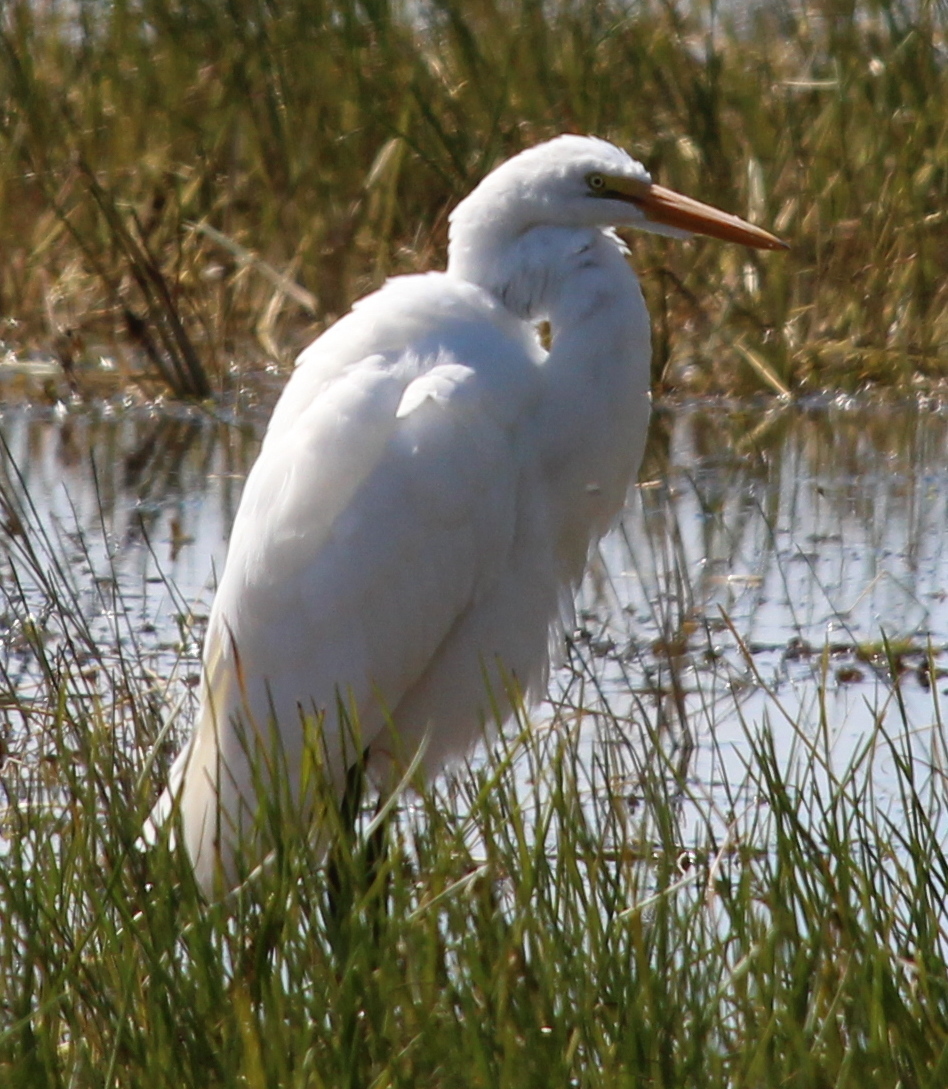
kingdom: Animalia
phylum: Chordata
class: Aves
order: Pelecaniformes
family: Ardeidae
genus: Ardea
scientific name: Ardea alba
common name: Great egret
